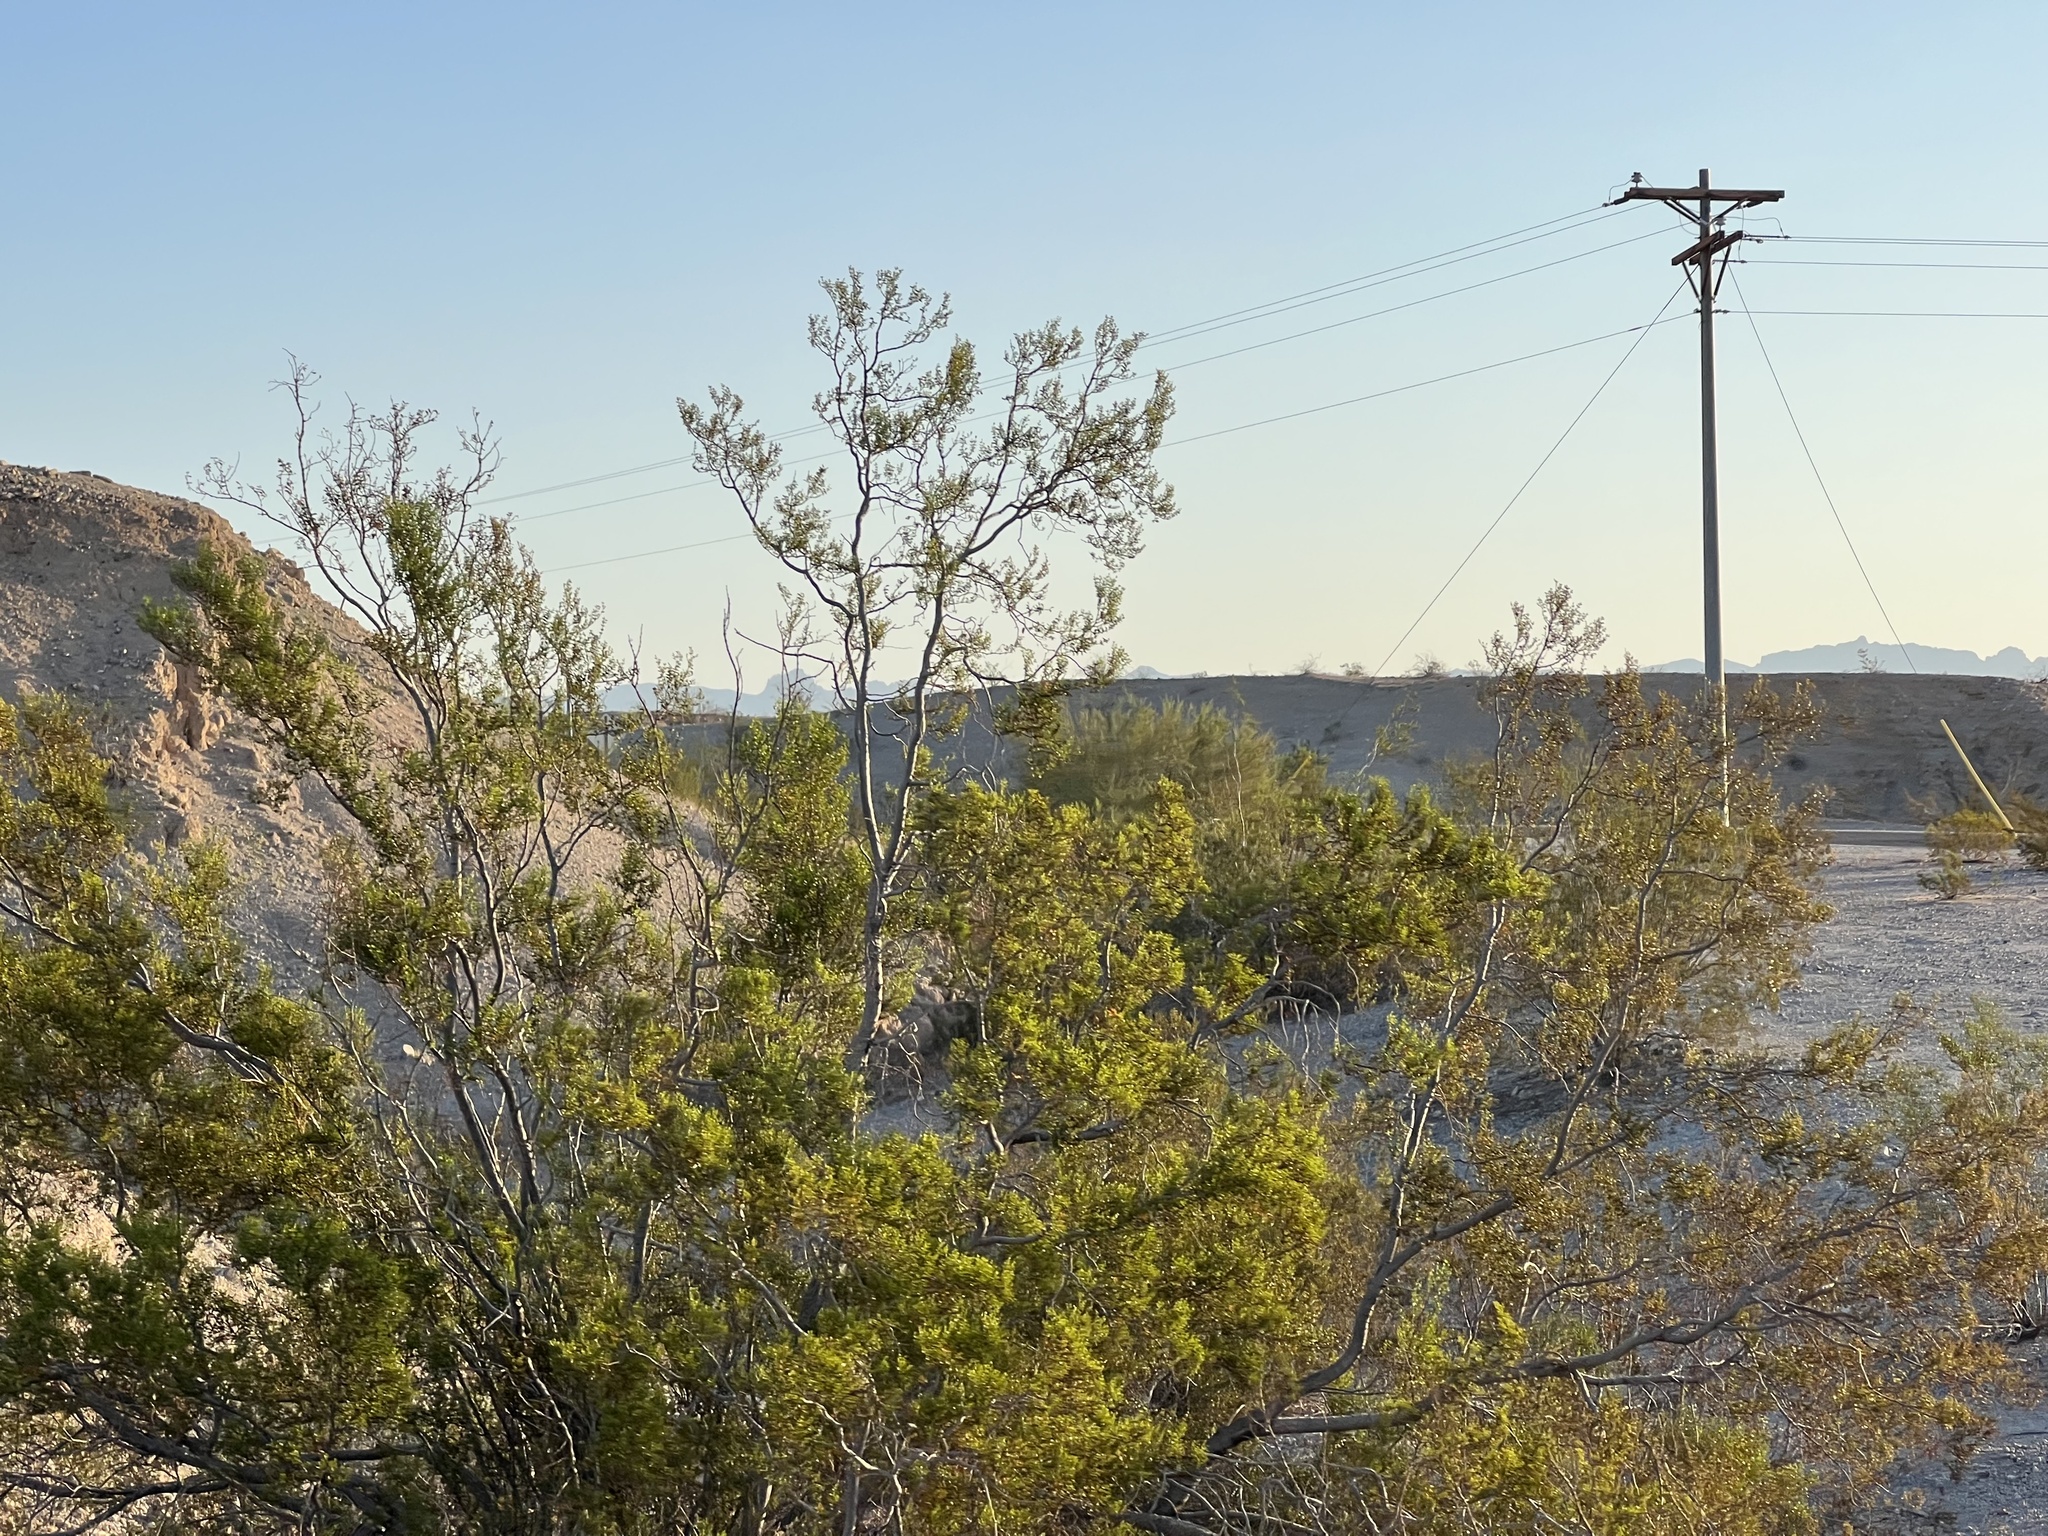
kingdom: Plantae
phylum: Tracheophyta
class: Magnoliopsida
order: Zygophyllales
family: Zygophyllaceae
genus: Larrea
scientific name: Larrea tridentata
